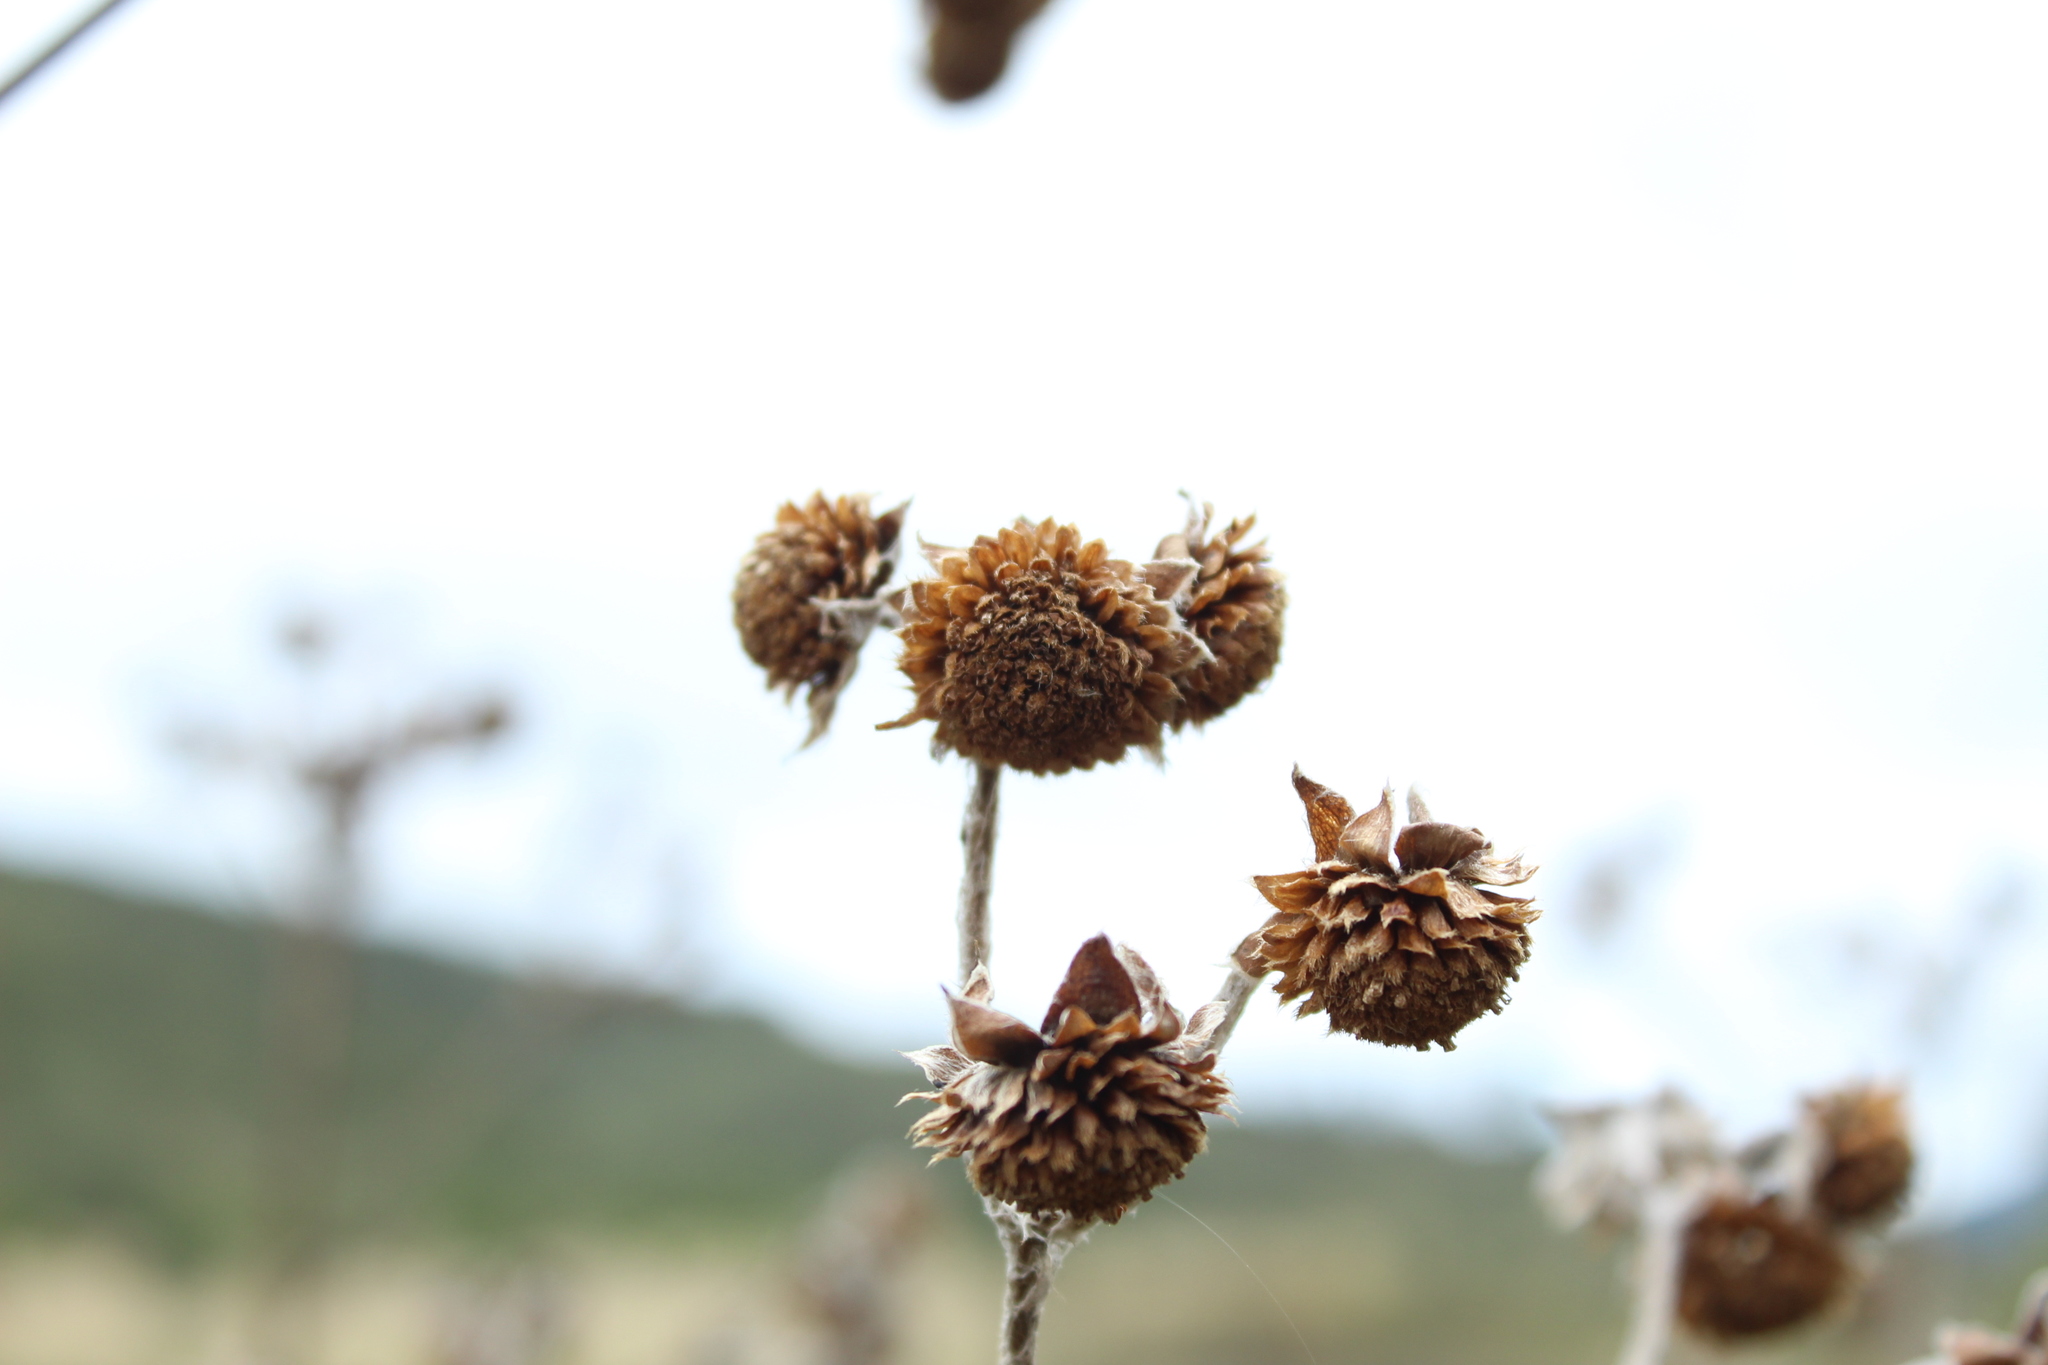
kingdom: Plantae
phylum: Tracheophyta
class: Magnoliopsida
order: Asterales
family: Asteraceae
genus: Espeletia
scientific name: Espeletia tunjana
